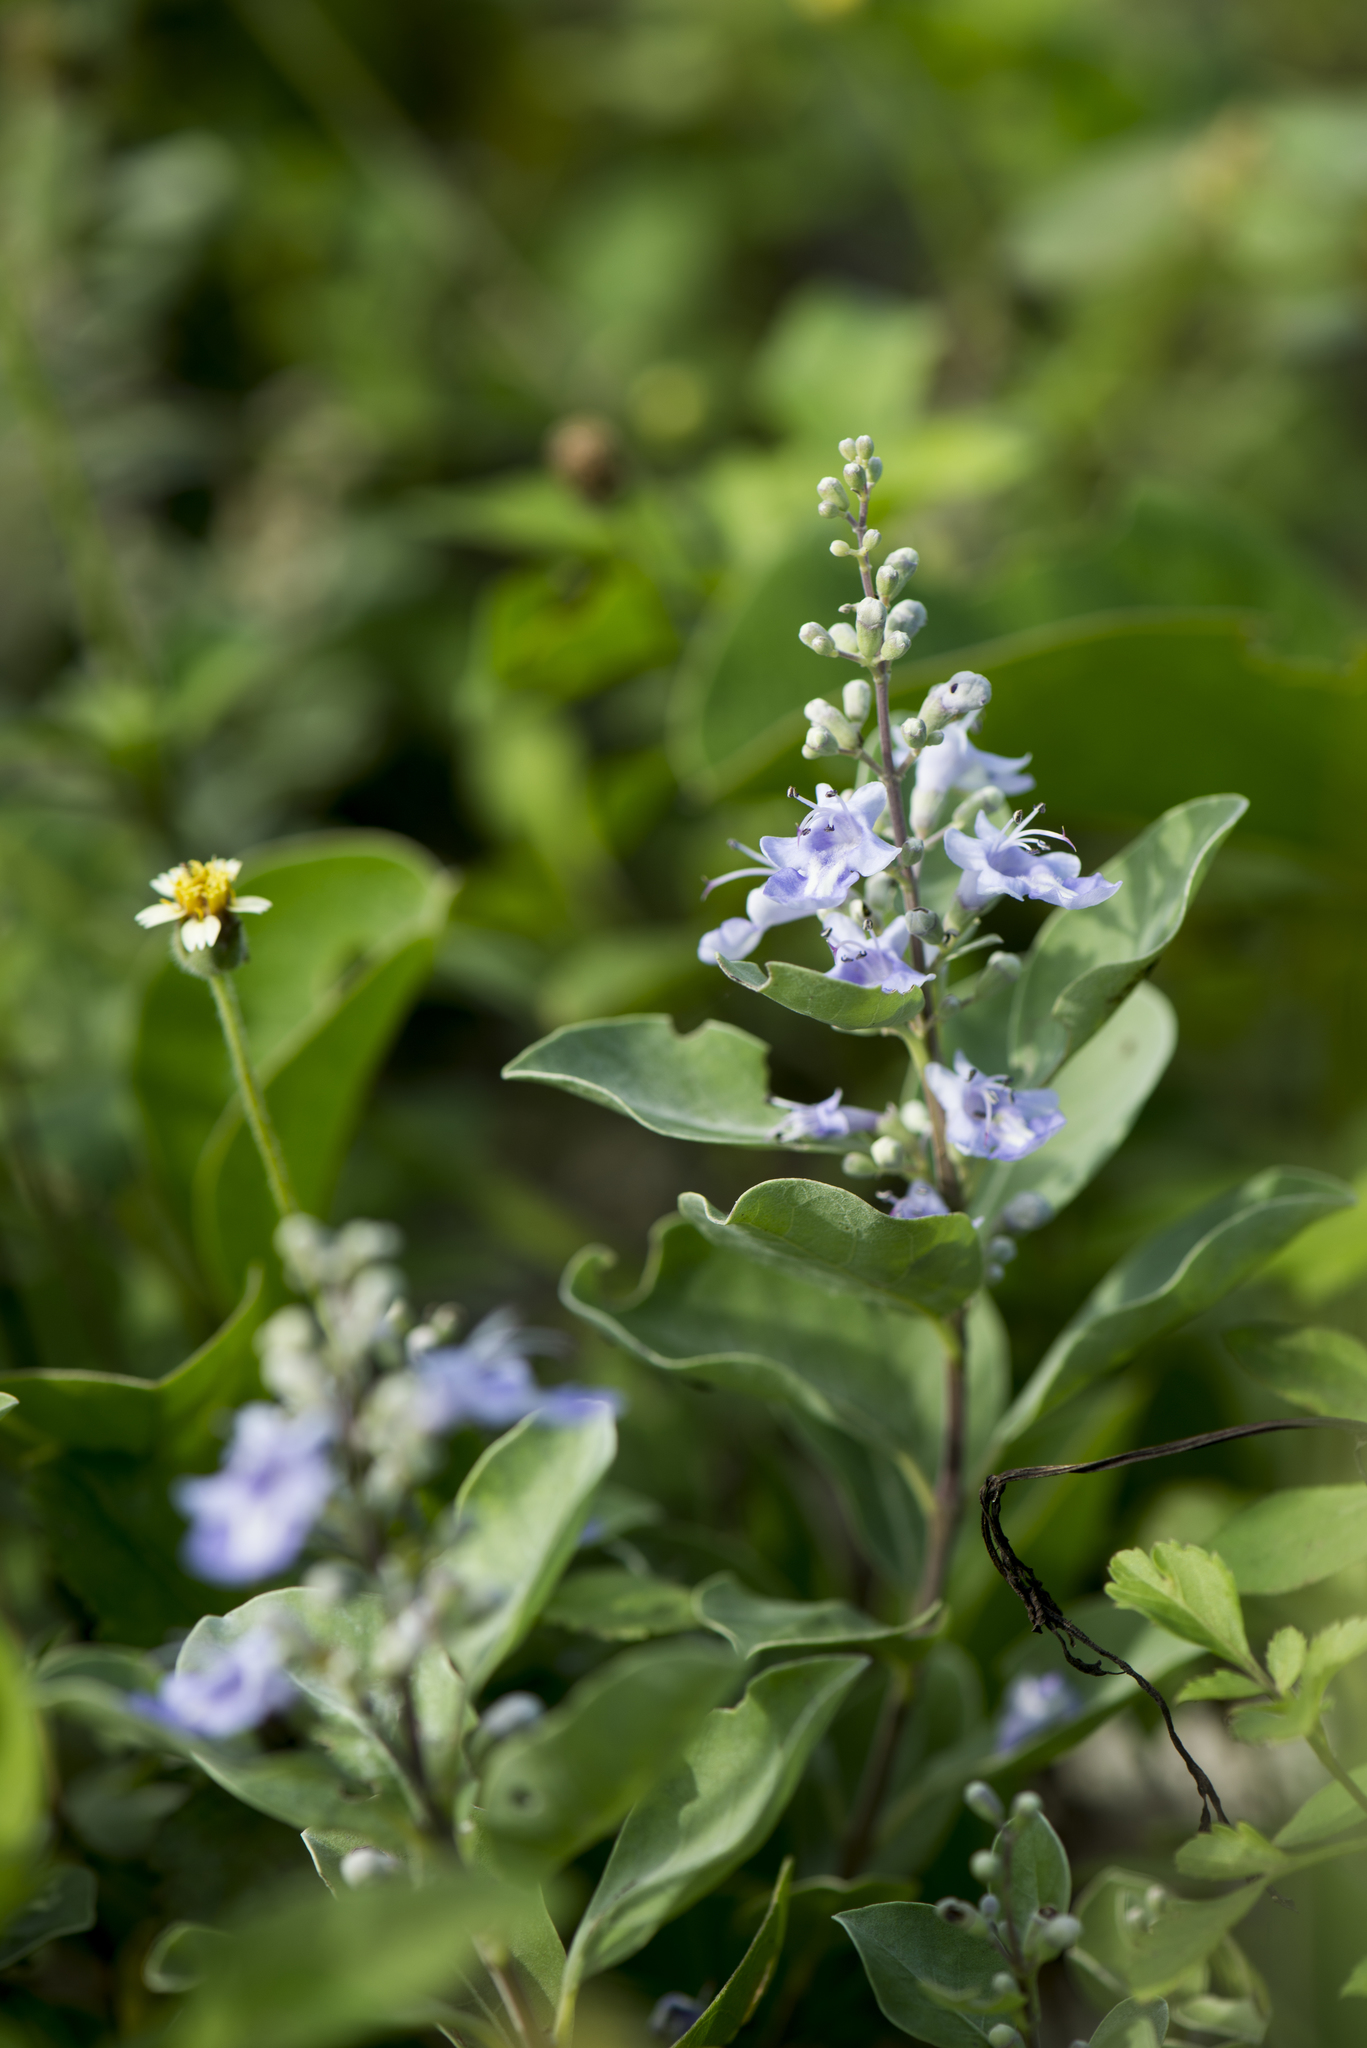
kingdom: Plantae
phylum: Tracheophyta
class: Magnoliopsida
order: Lamiales
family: Lamiaceae
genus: Vitex
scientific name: Vitex rotundifolia
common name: Beach vitex
